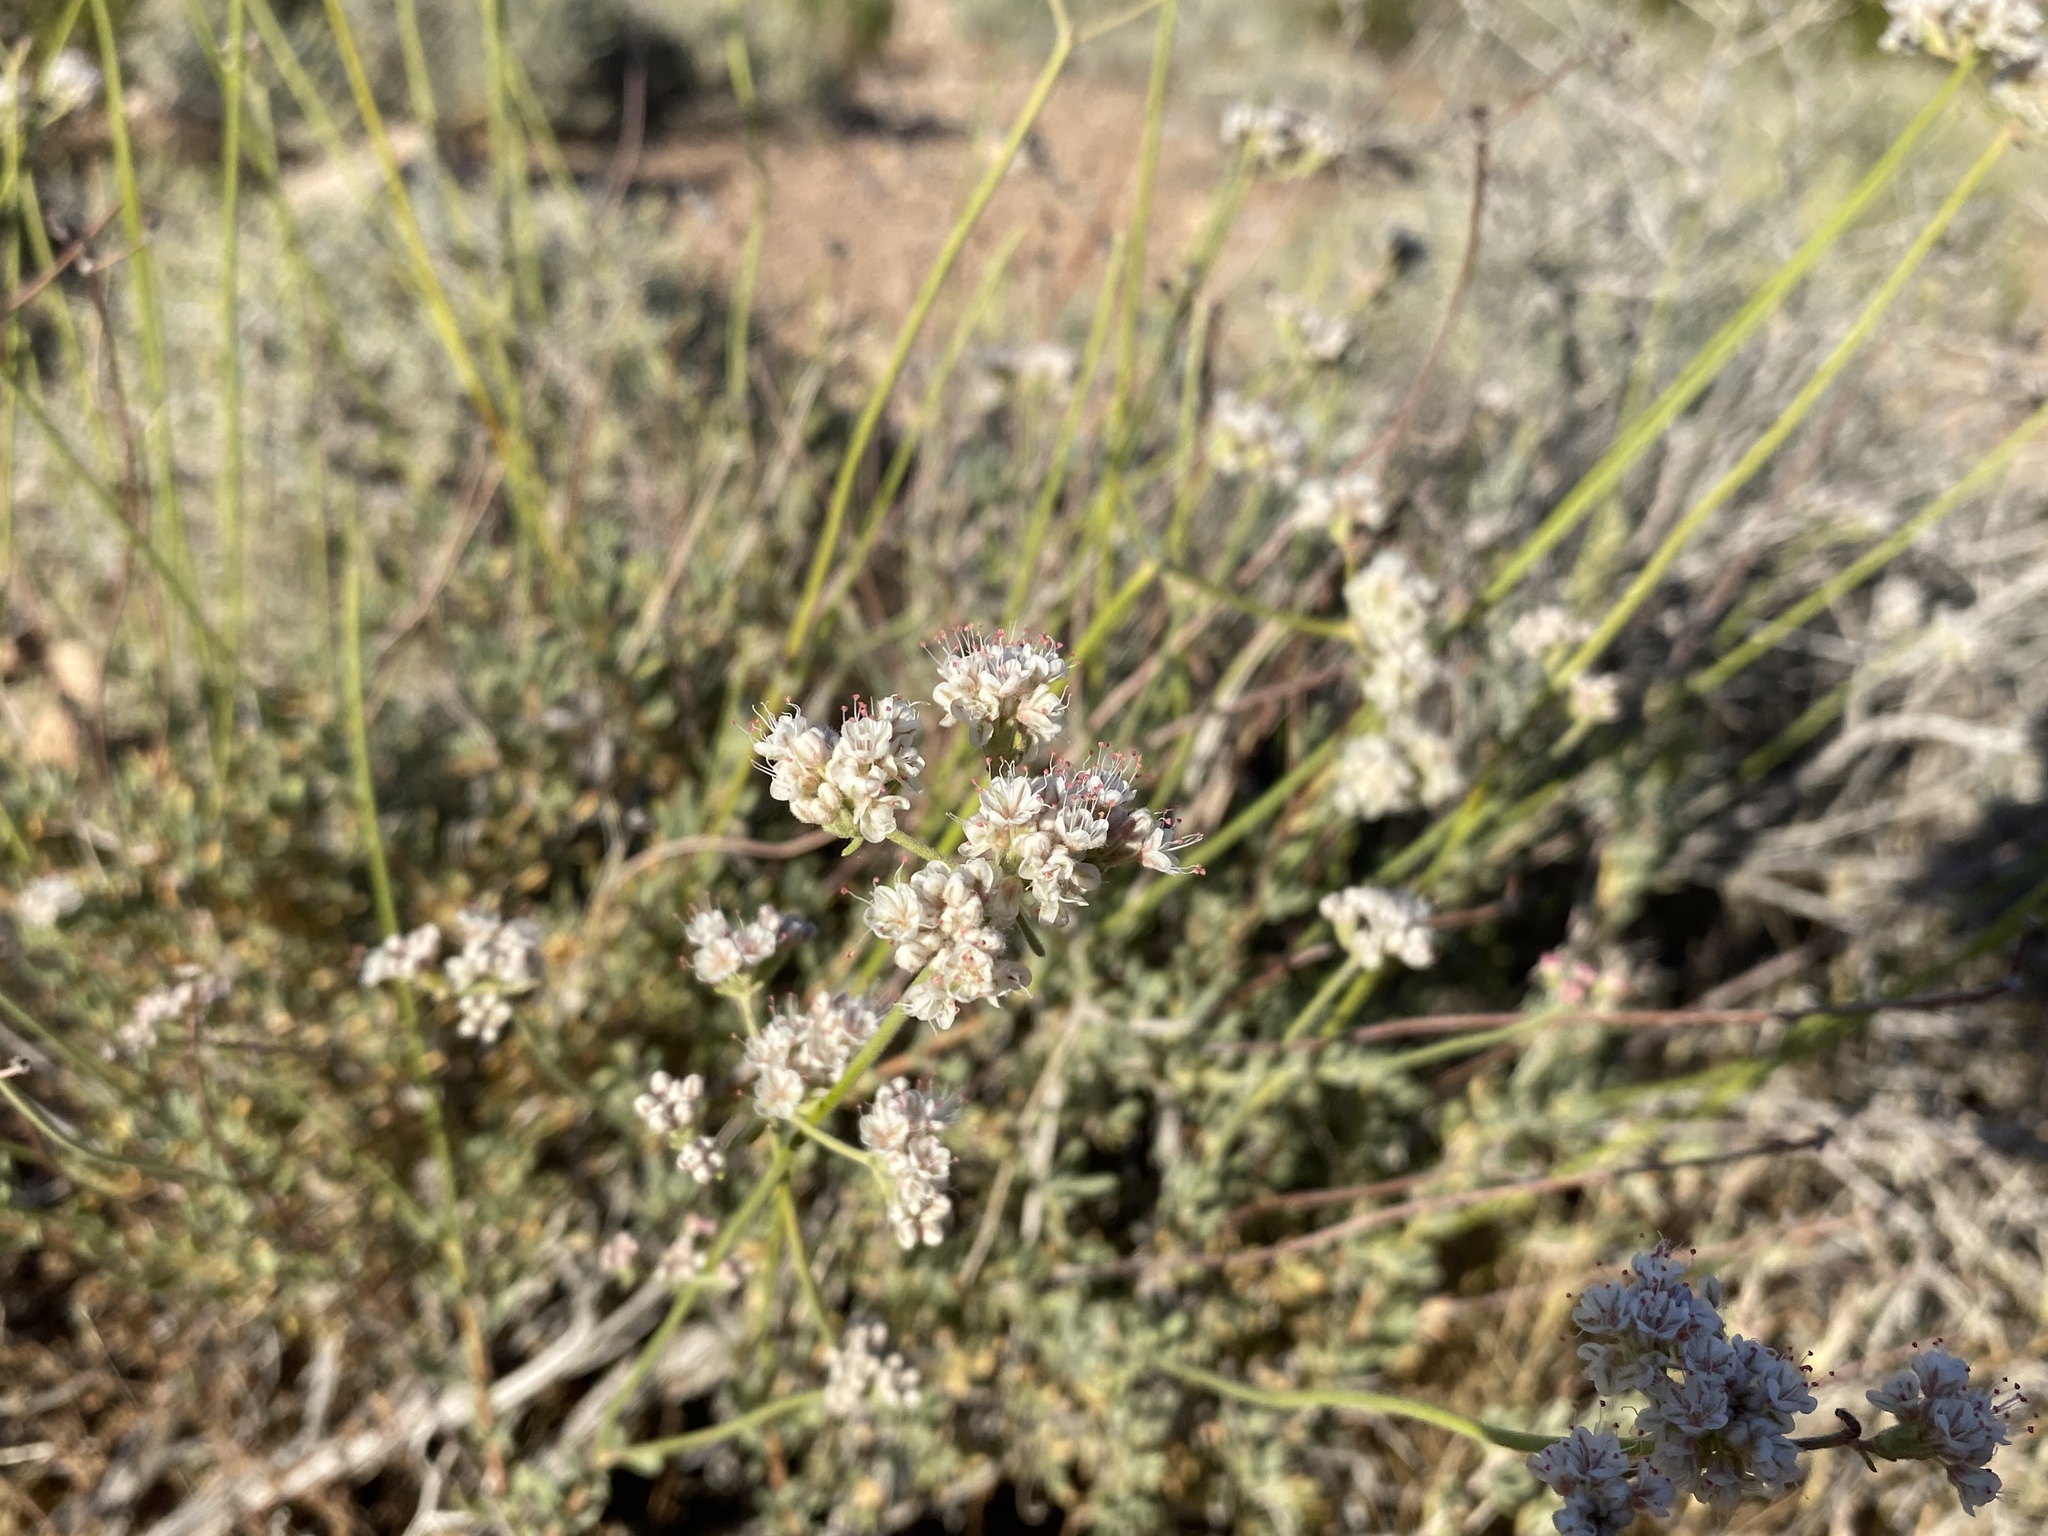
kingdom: Plantae
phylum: Tracheophyta
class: Magnoliopsida
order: Caryophyllales
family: Polygonaceae
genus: Eriogonum
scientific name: Eriogonum fasciculatum
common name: California wild buckwheat
